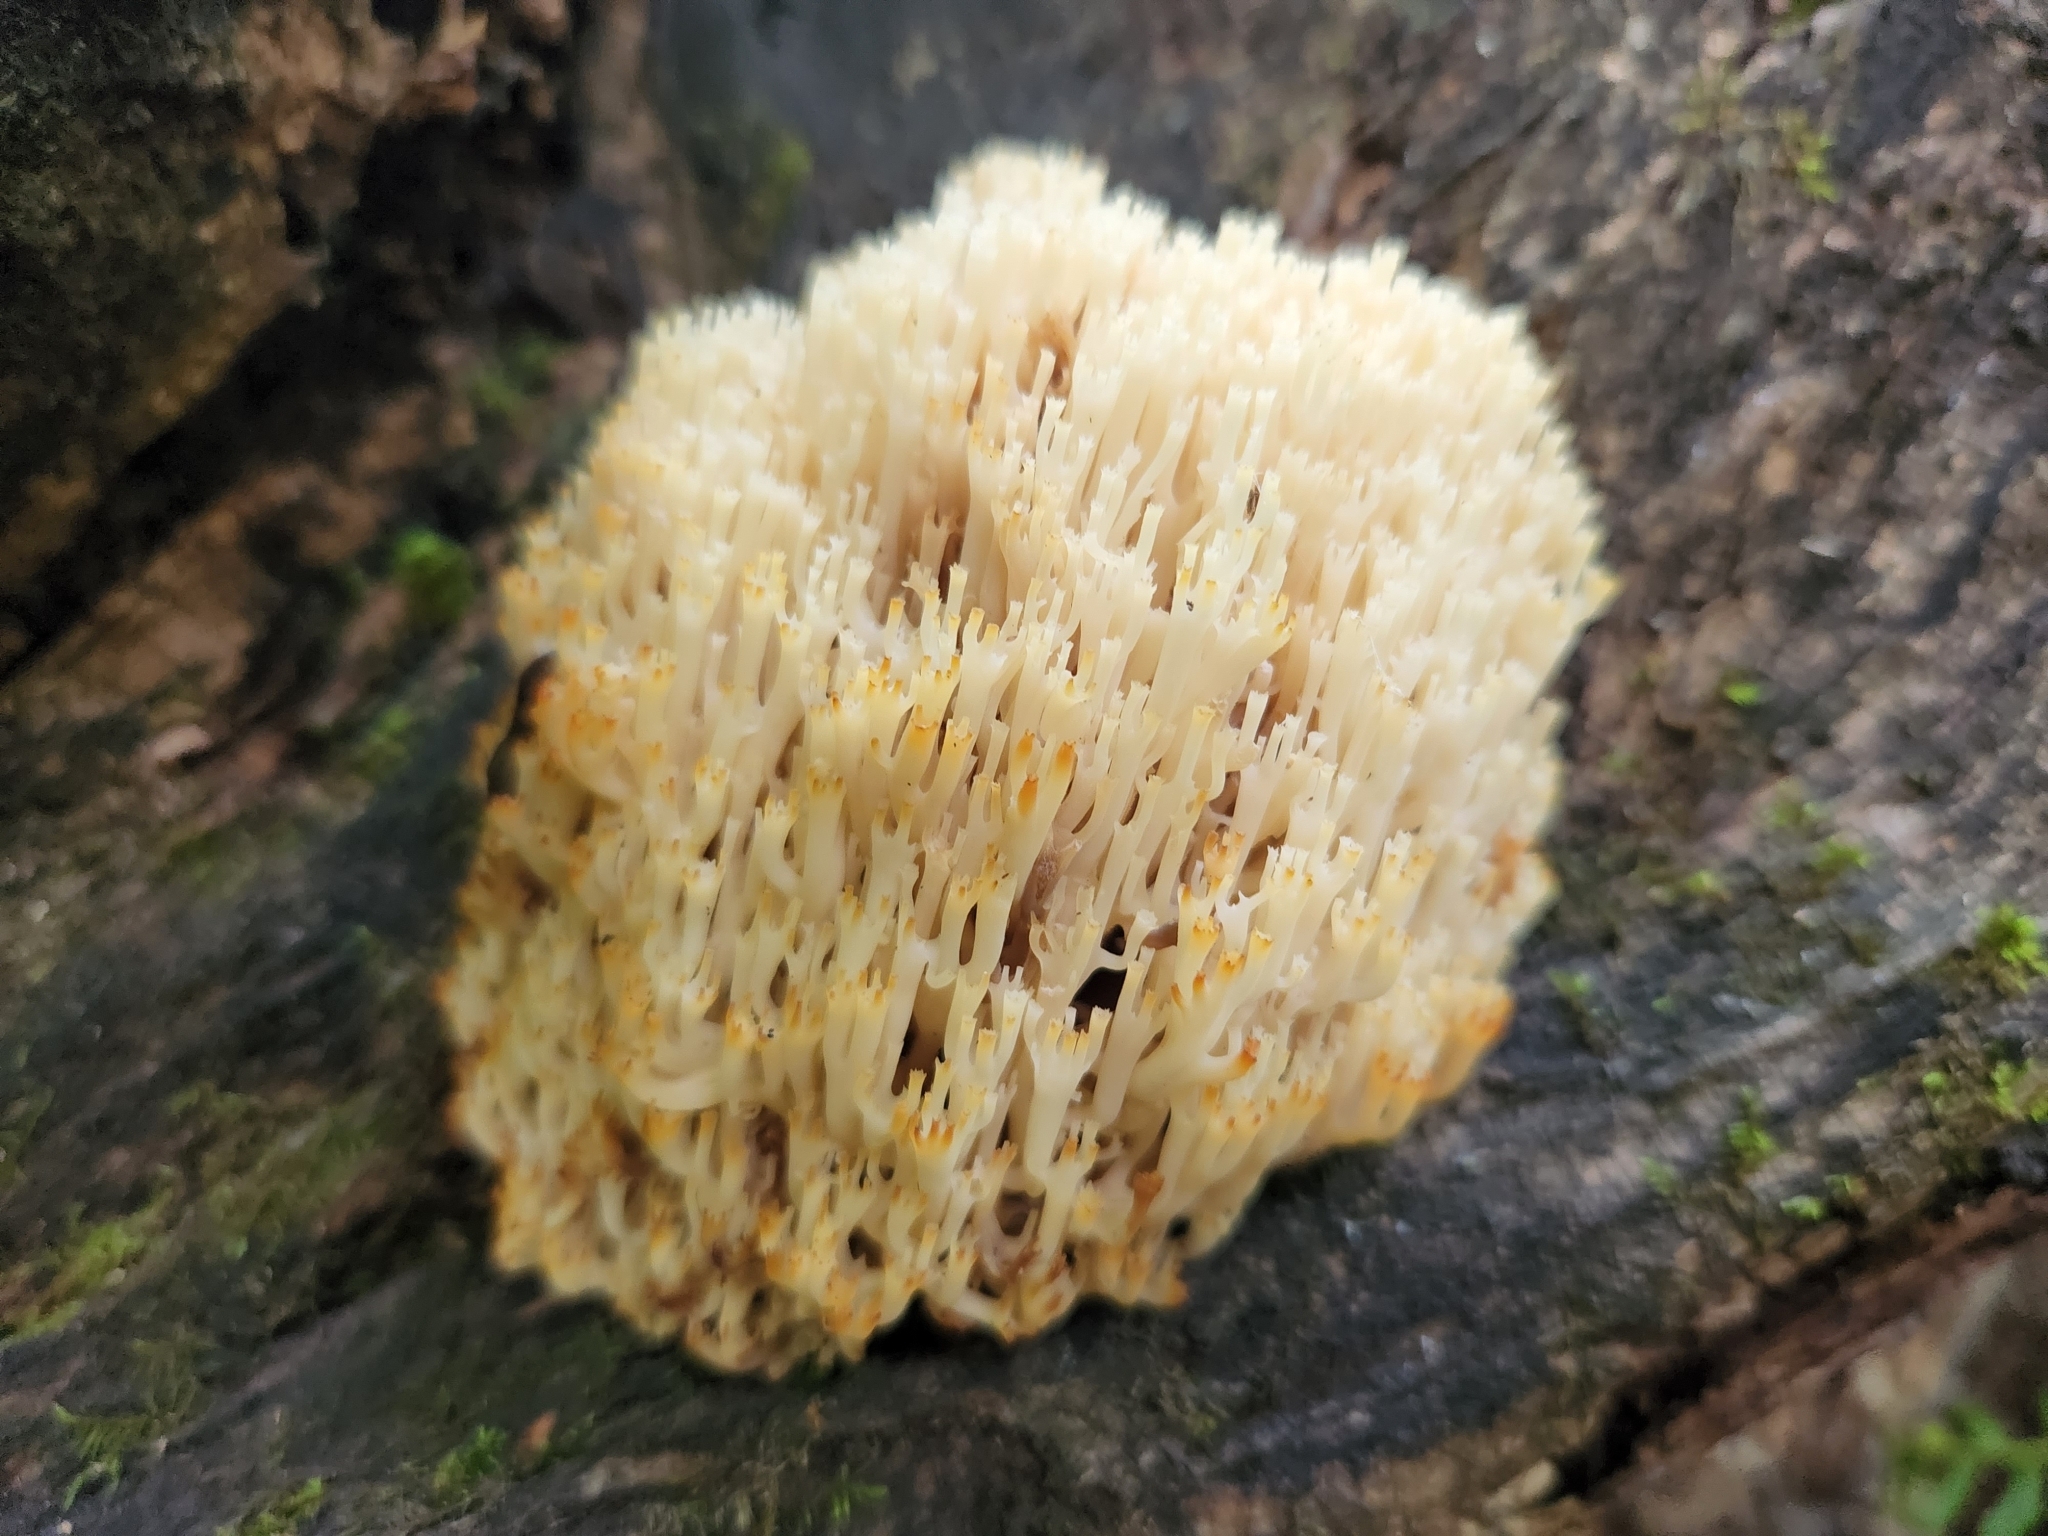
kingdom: Fungi
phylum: Basidiomycota
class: Agaricomycetes
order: Russulales
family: Auriscalpiaceae
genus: Artomyces
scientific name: Artomyces pyxidatus
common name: Crown-tipped coral fungus
